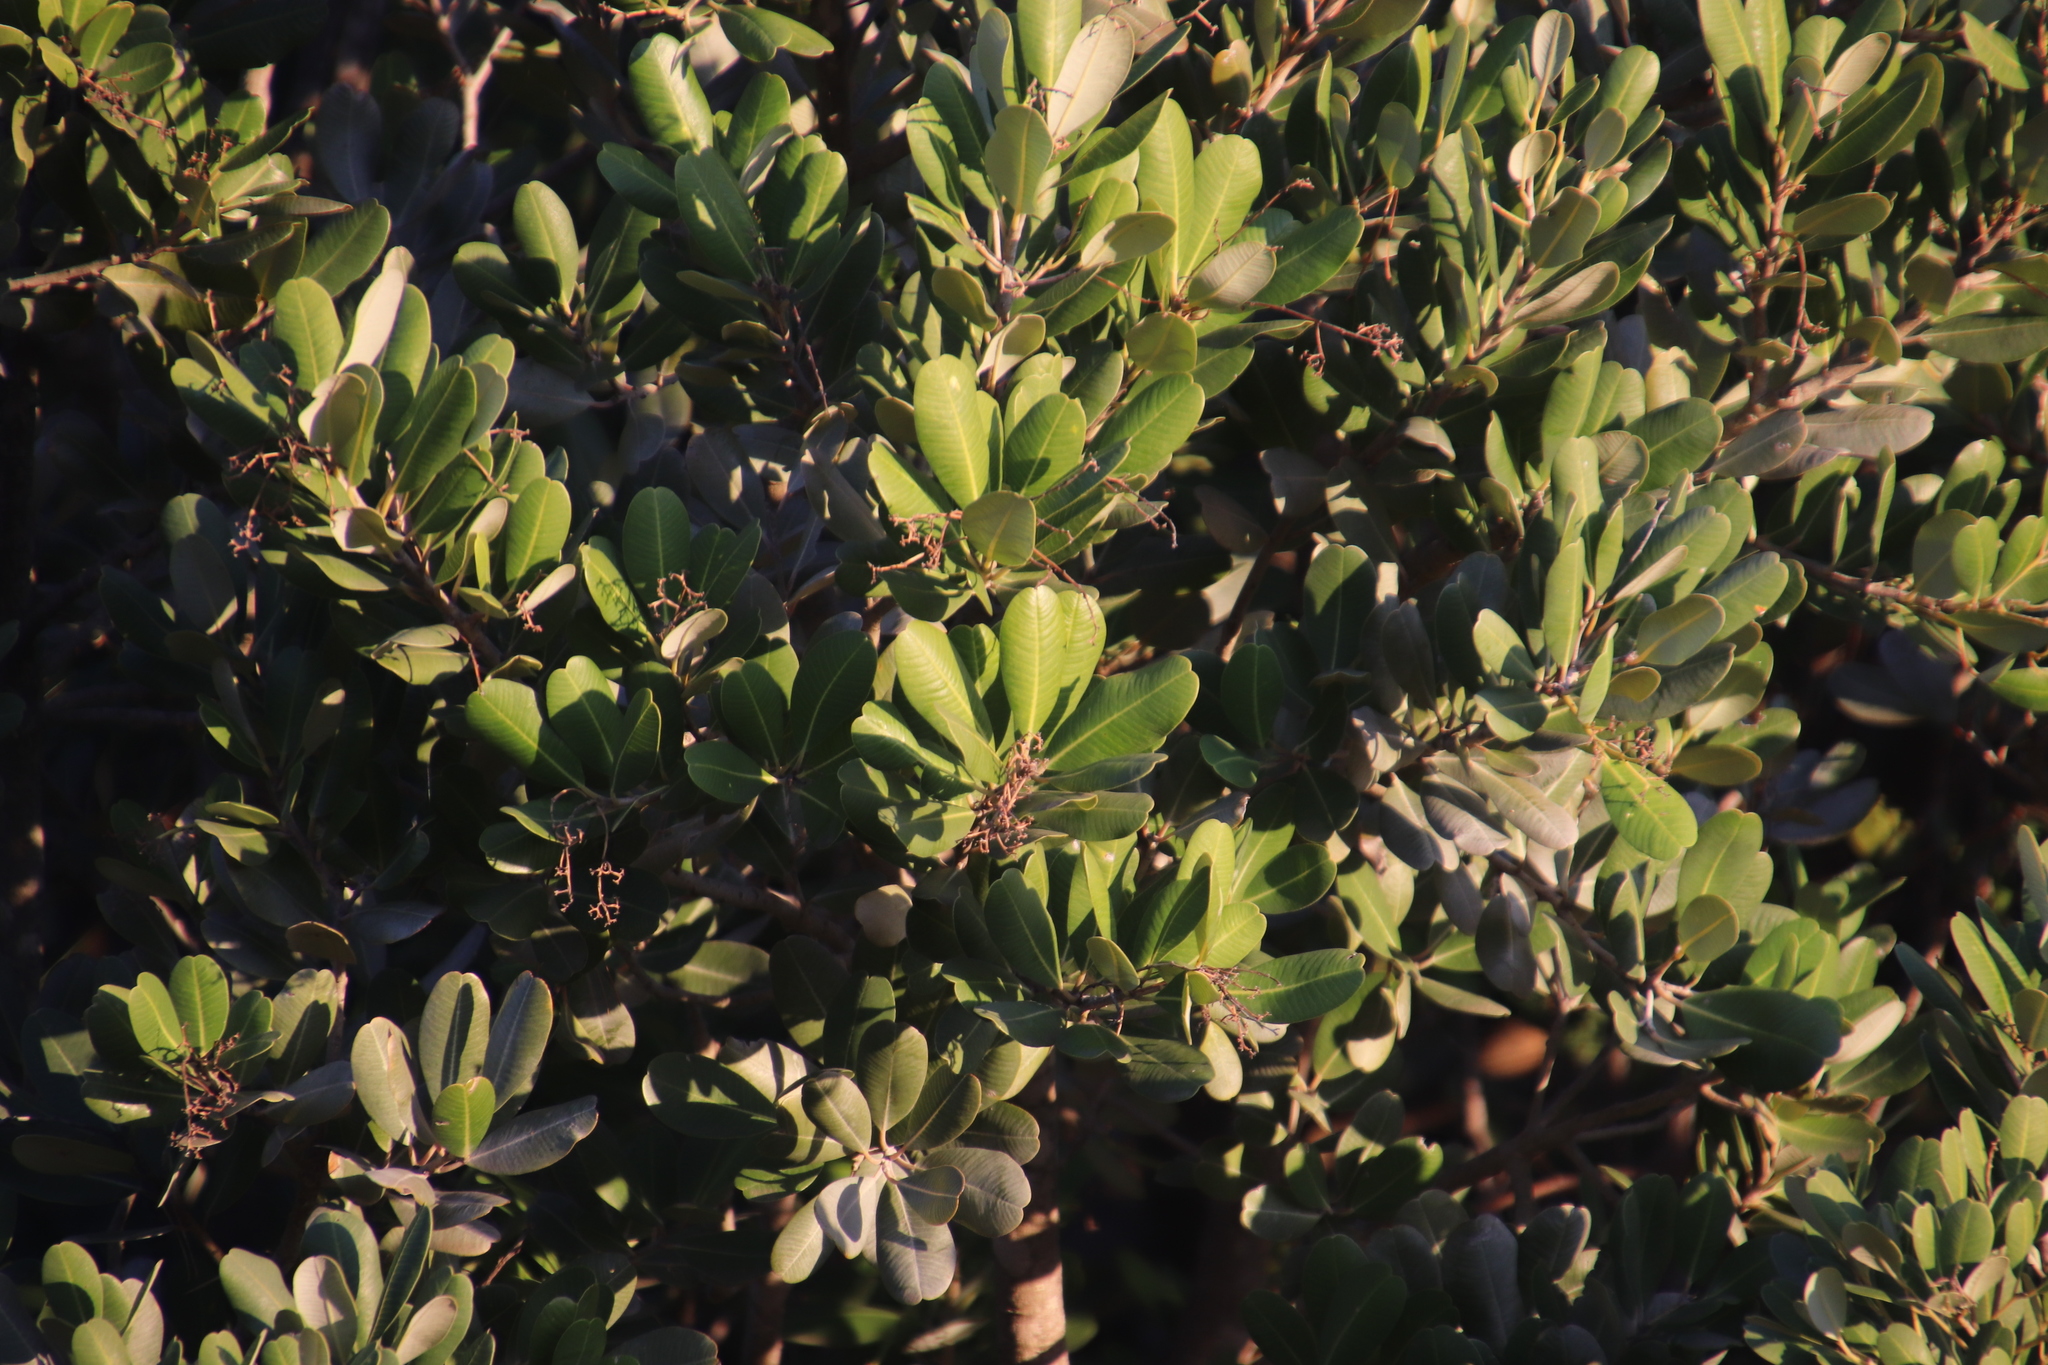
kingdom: Plantae
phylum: Tracheophyta
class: Magnoliopsida
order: Sapindales
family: Anacardiaceae
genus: Heeria
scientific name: Heeria argentea
